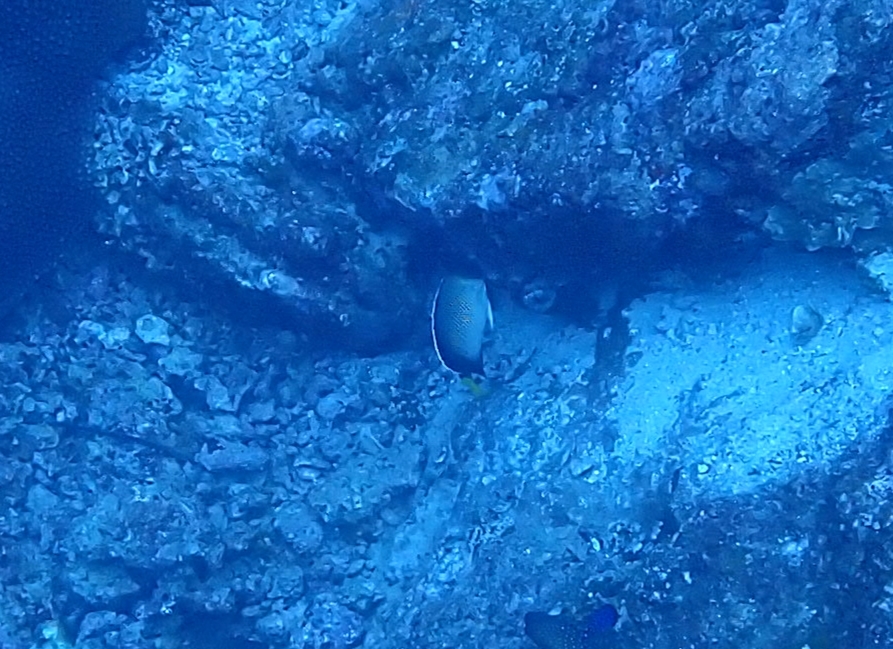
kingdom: Animalia
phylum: Chordata
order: Perciformes
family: Pomacanthidae
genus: Apolemichthys
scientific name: Apolemichthys xanthurus
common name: Indian yellowtail angelfish
